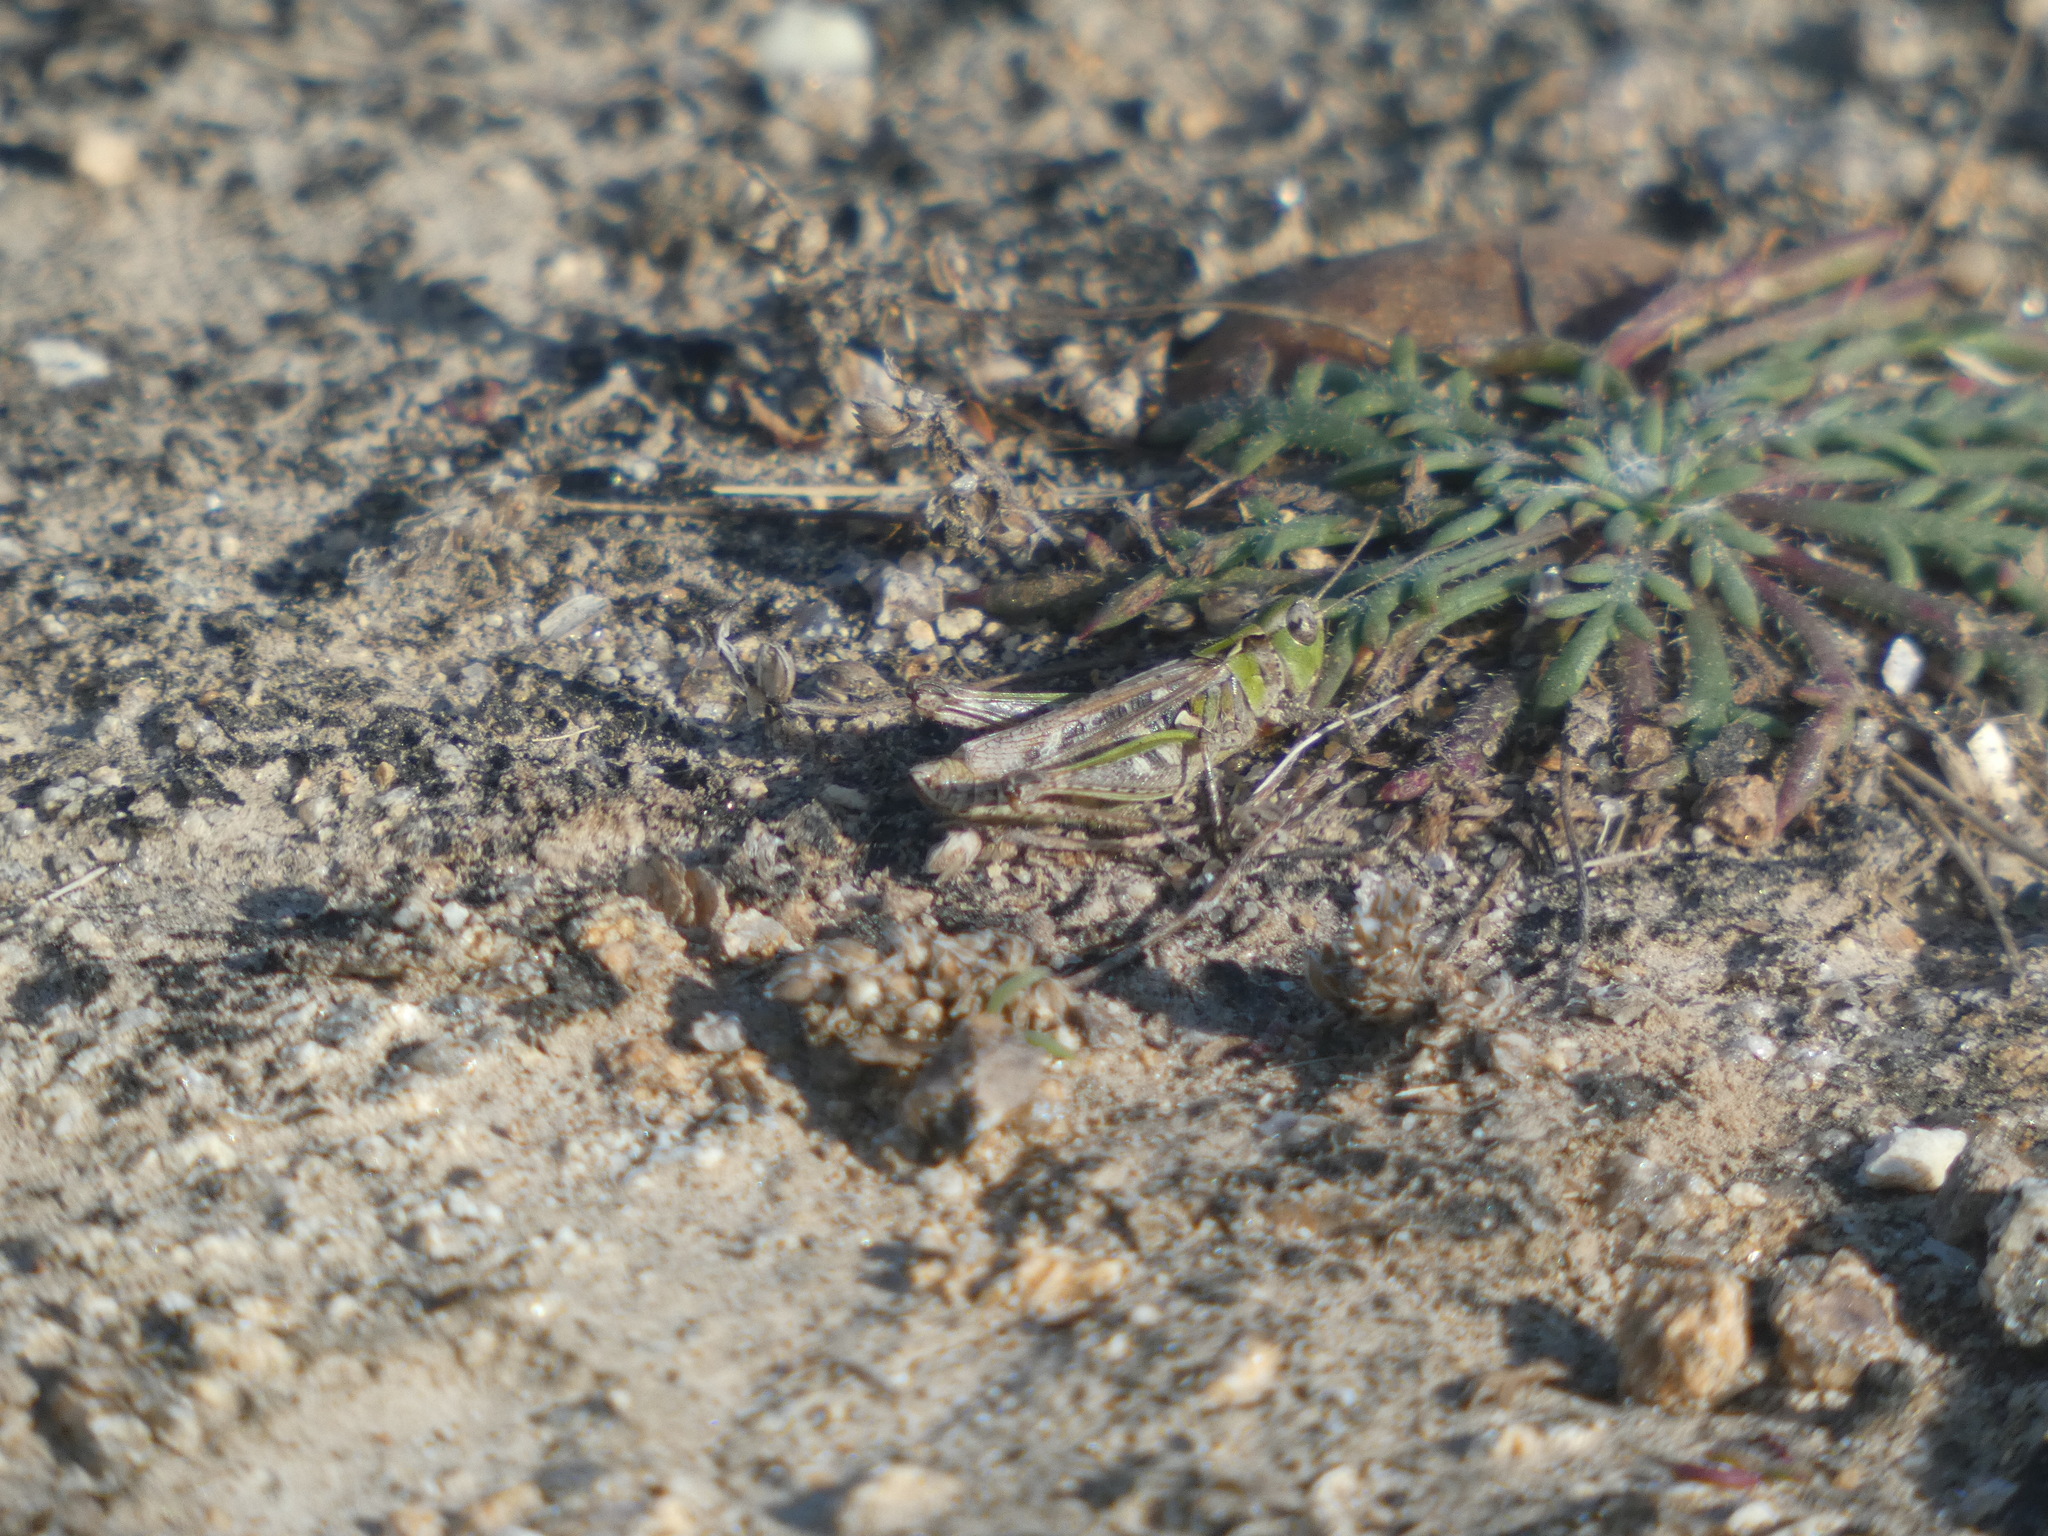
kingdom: Animalia
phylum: Arthropoda
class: Insecta
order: Orthoptera
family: Acrididae
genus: Myrmeleotettix
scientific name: Myrmeleotettix maculatus
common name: Mottled grasshopper
